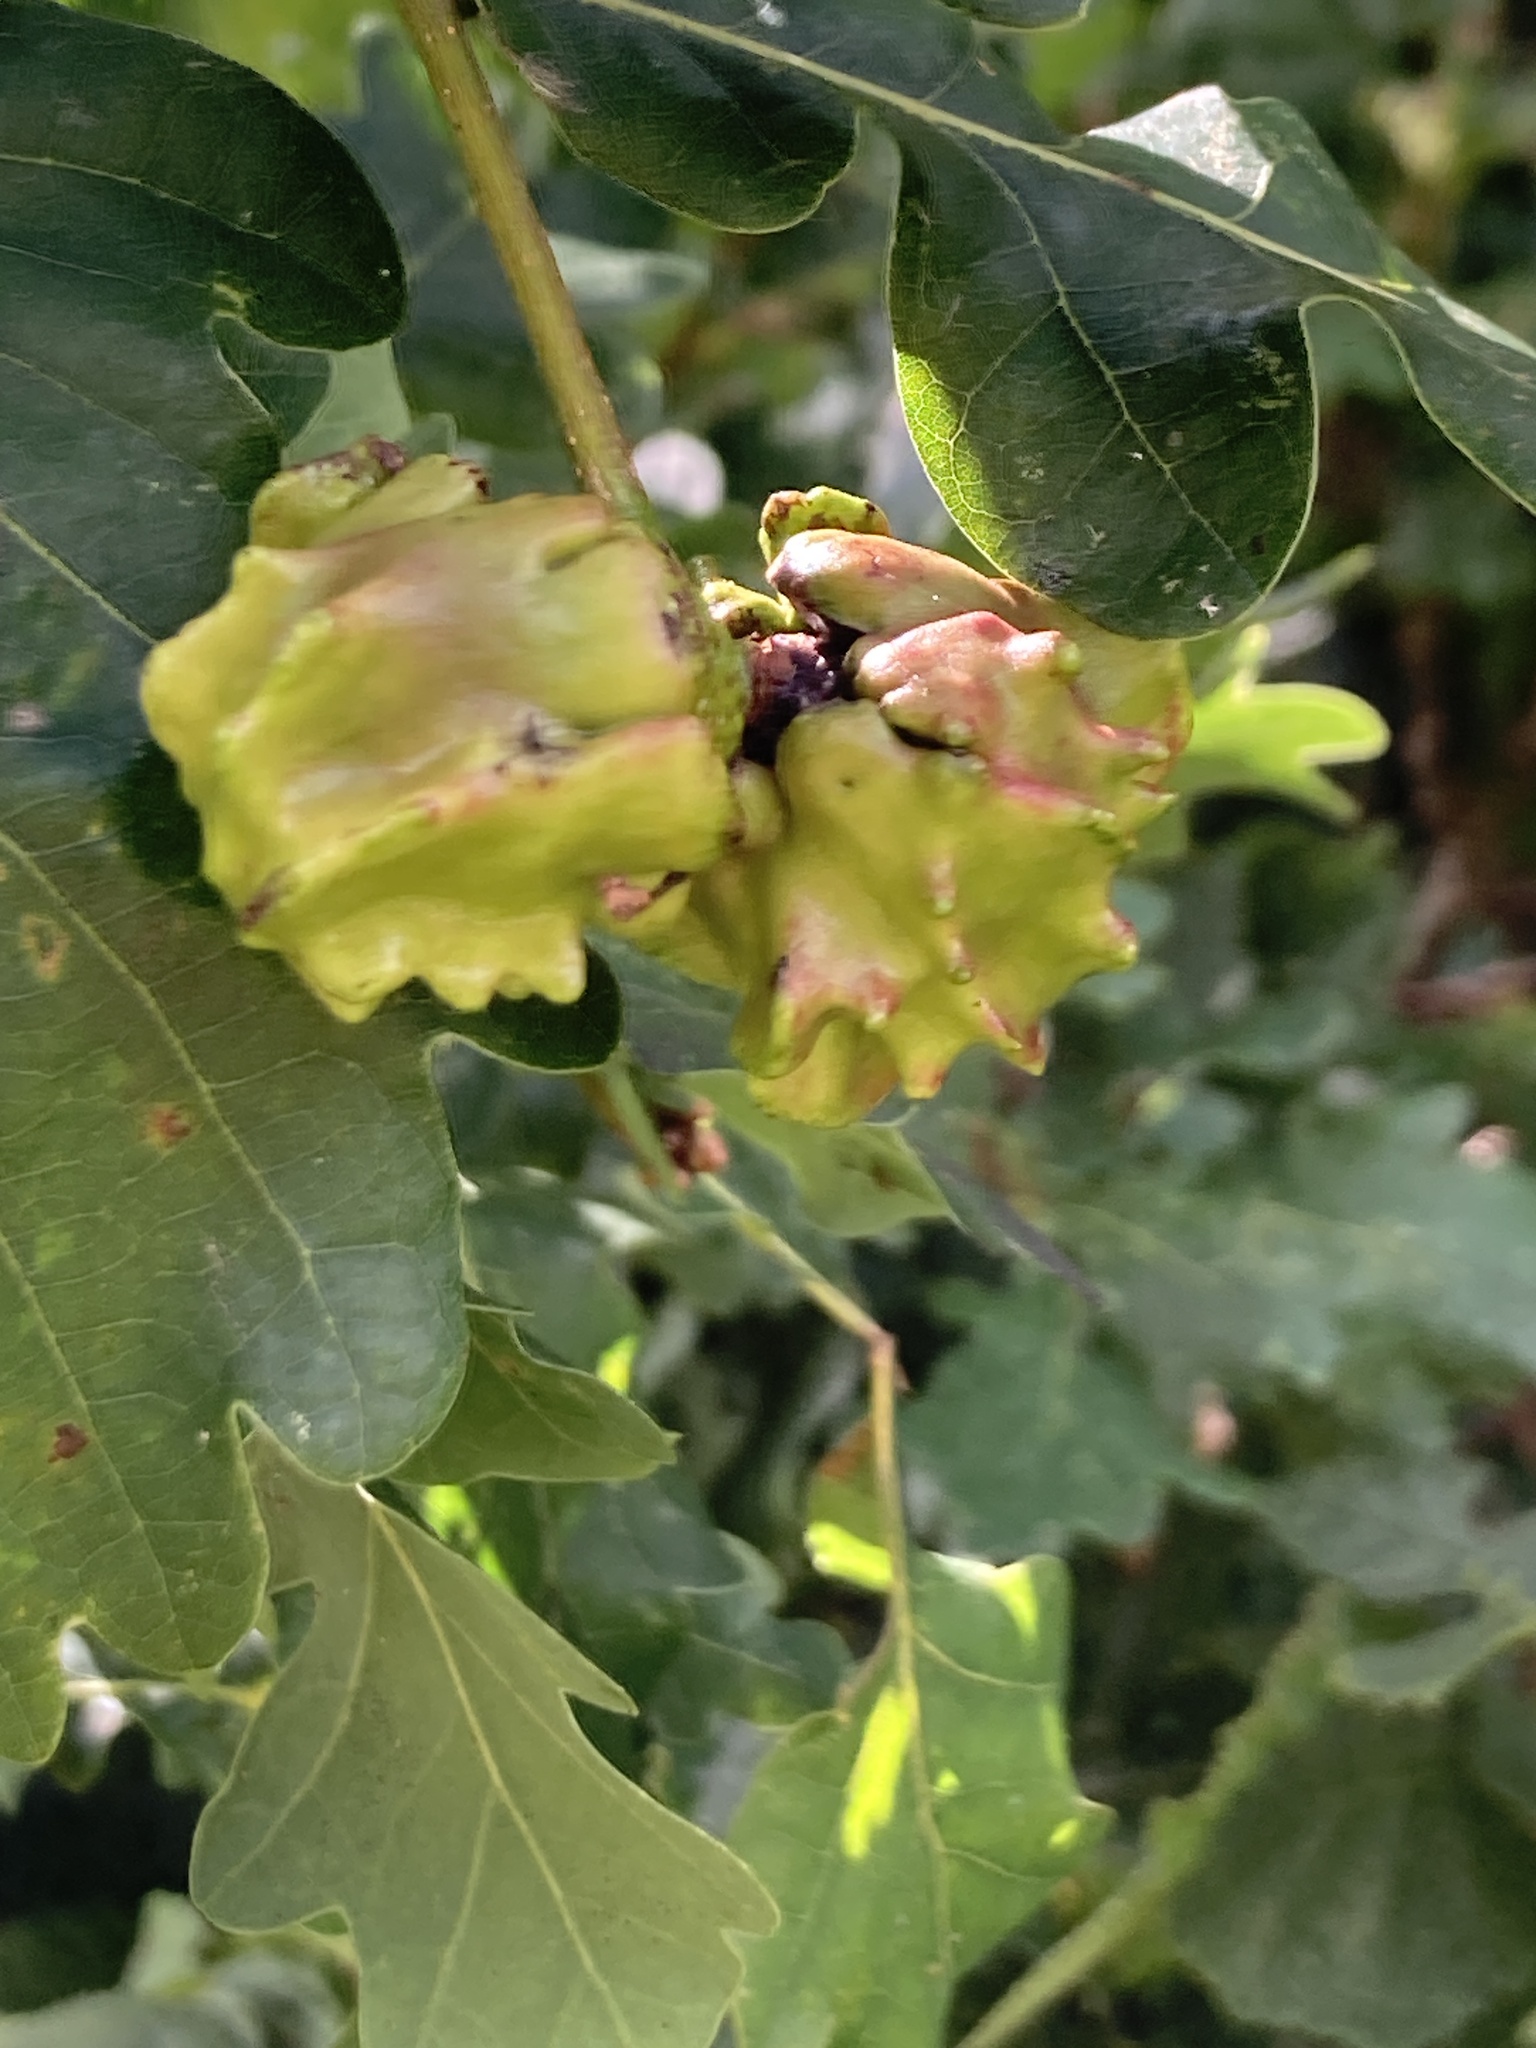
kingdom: Animalia
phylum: Arthropoda
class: Insecta
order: Hymenoptera
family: Cynipidae
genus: Andricus
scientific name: Andricus quercuscalicis
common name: Knopper gall
